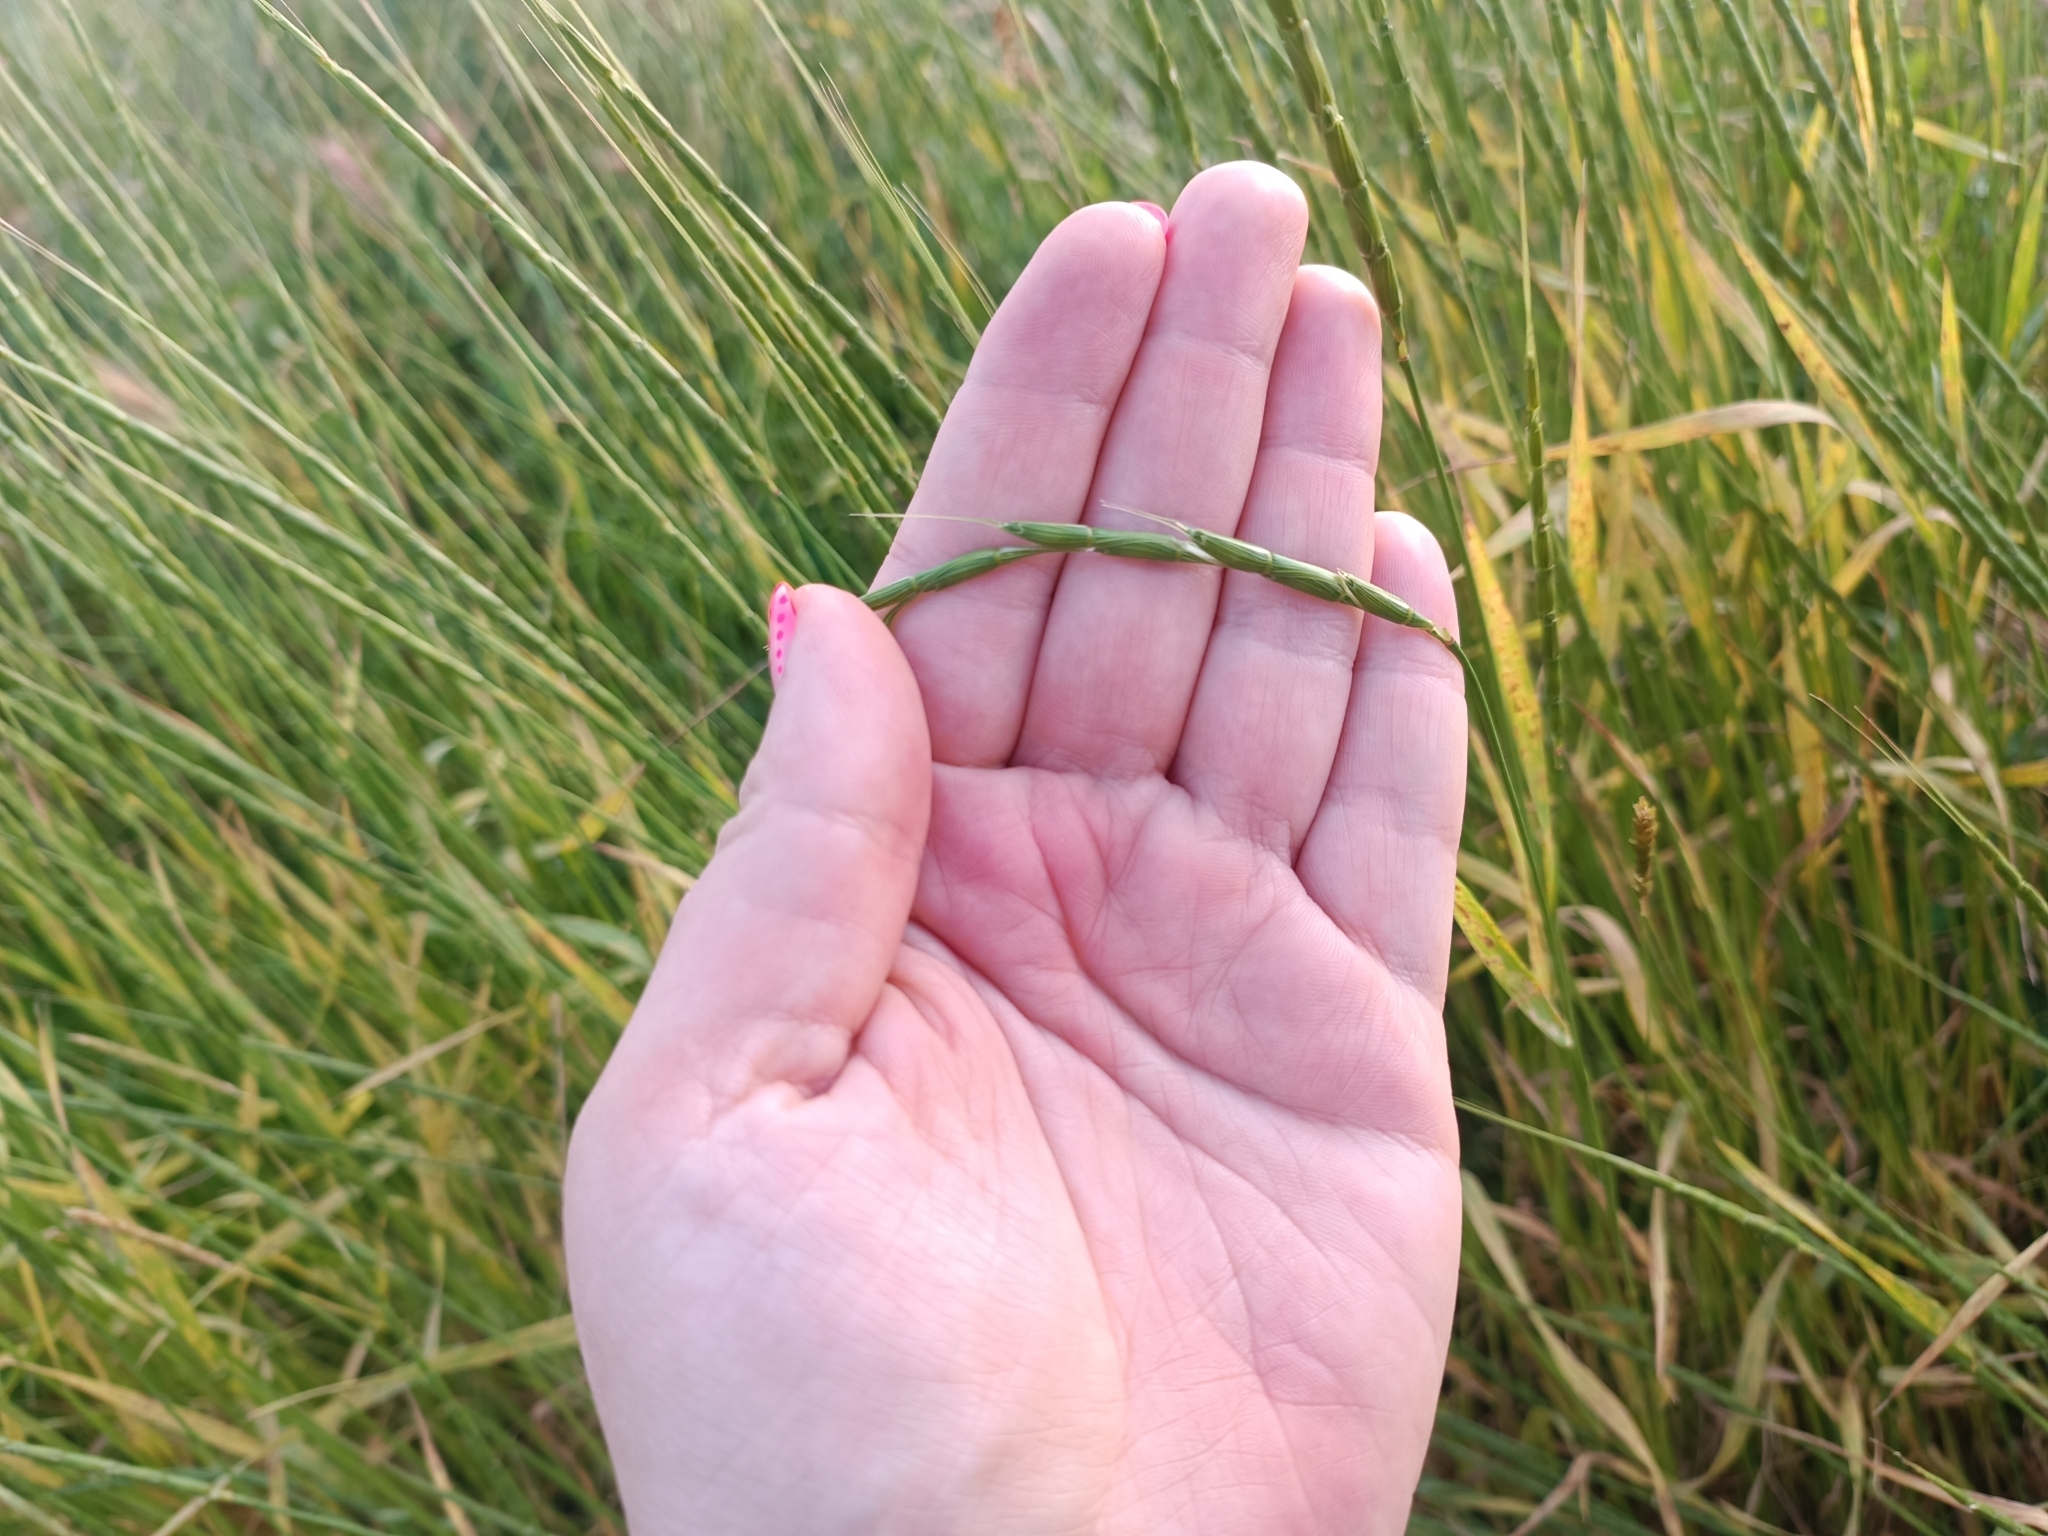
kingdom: Plantae
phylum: Tracheophyta
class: Liliopsida
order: Poales
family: Poaceae
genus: Aegilops
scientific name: Aegilops cylindrica
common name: Jointed goatgrass
